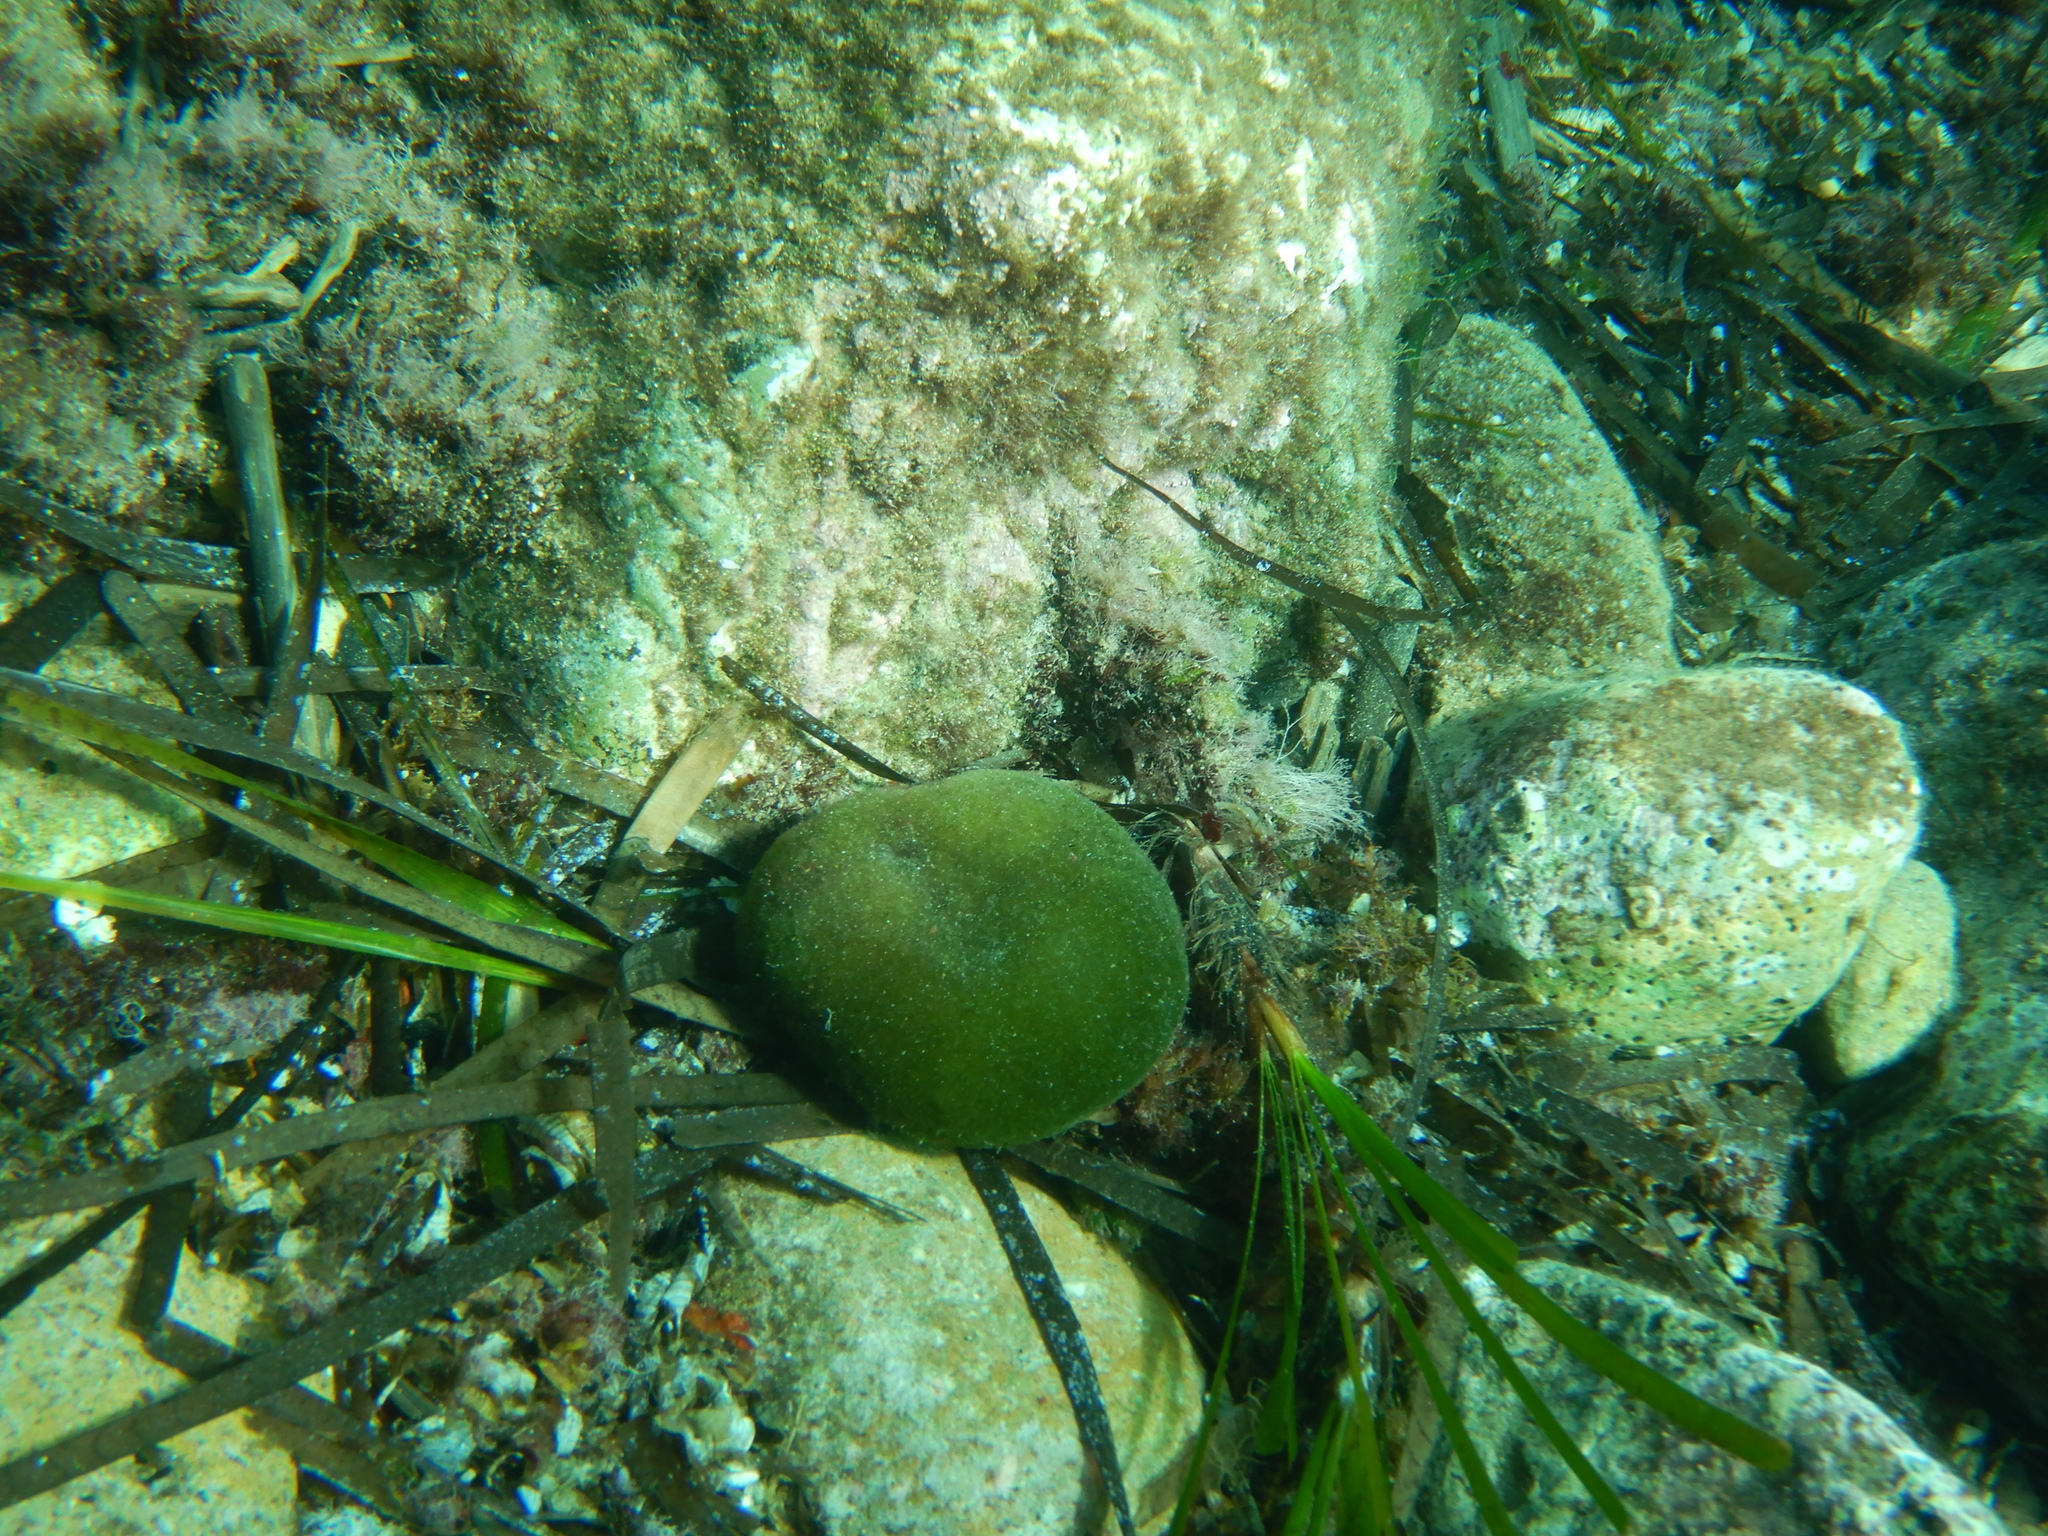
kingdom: Plantae
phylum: Chlorophyta
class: Ulvophyceae
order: Bryopsidales
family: Codiaceae
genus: Codium
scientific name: Codium bursa
